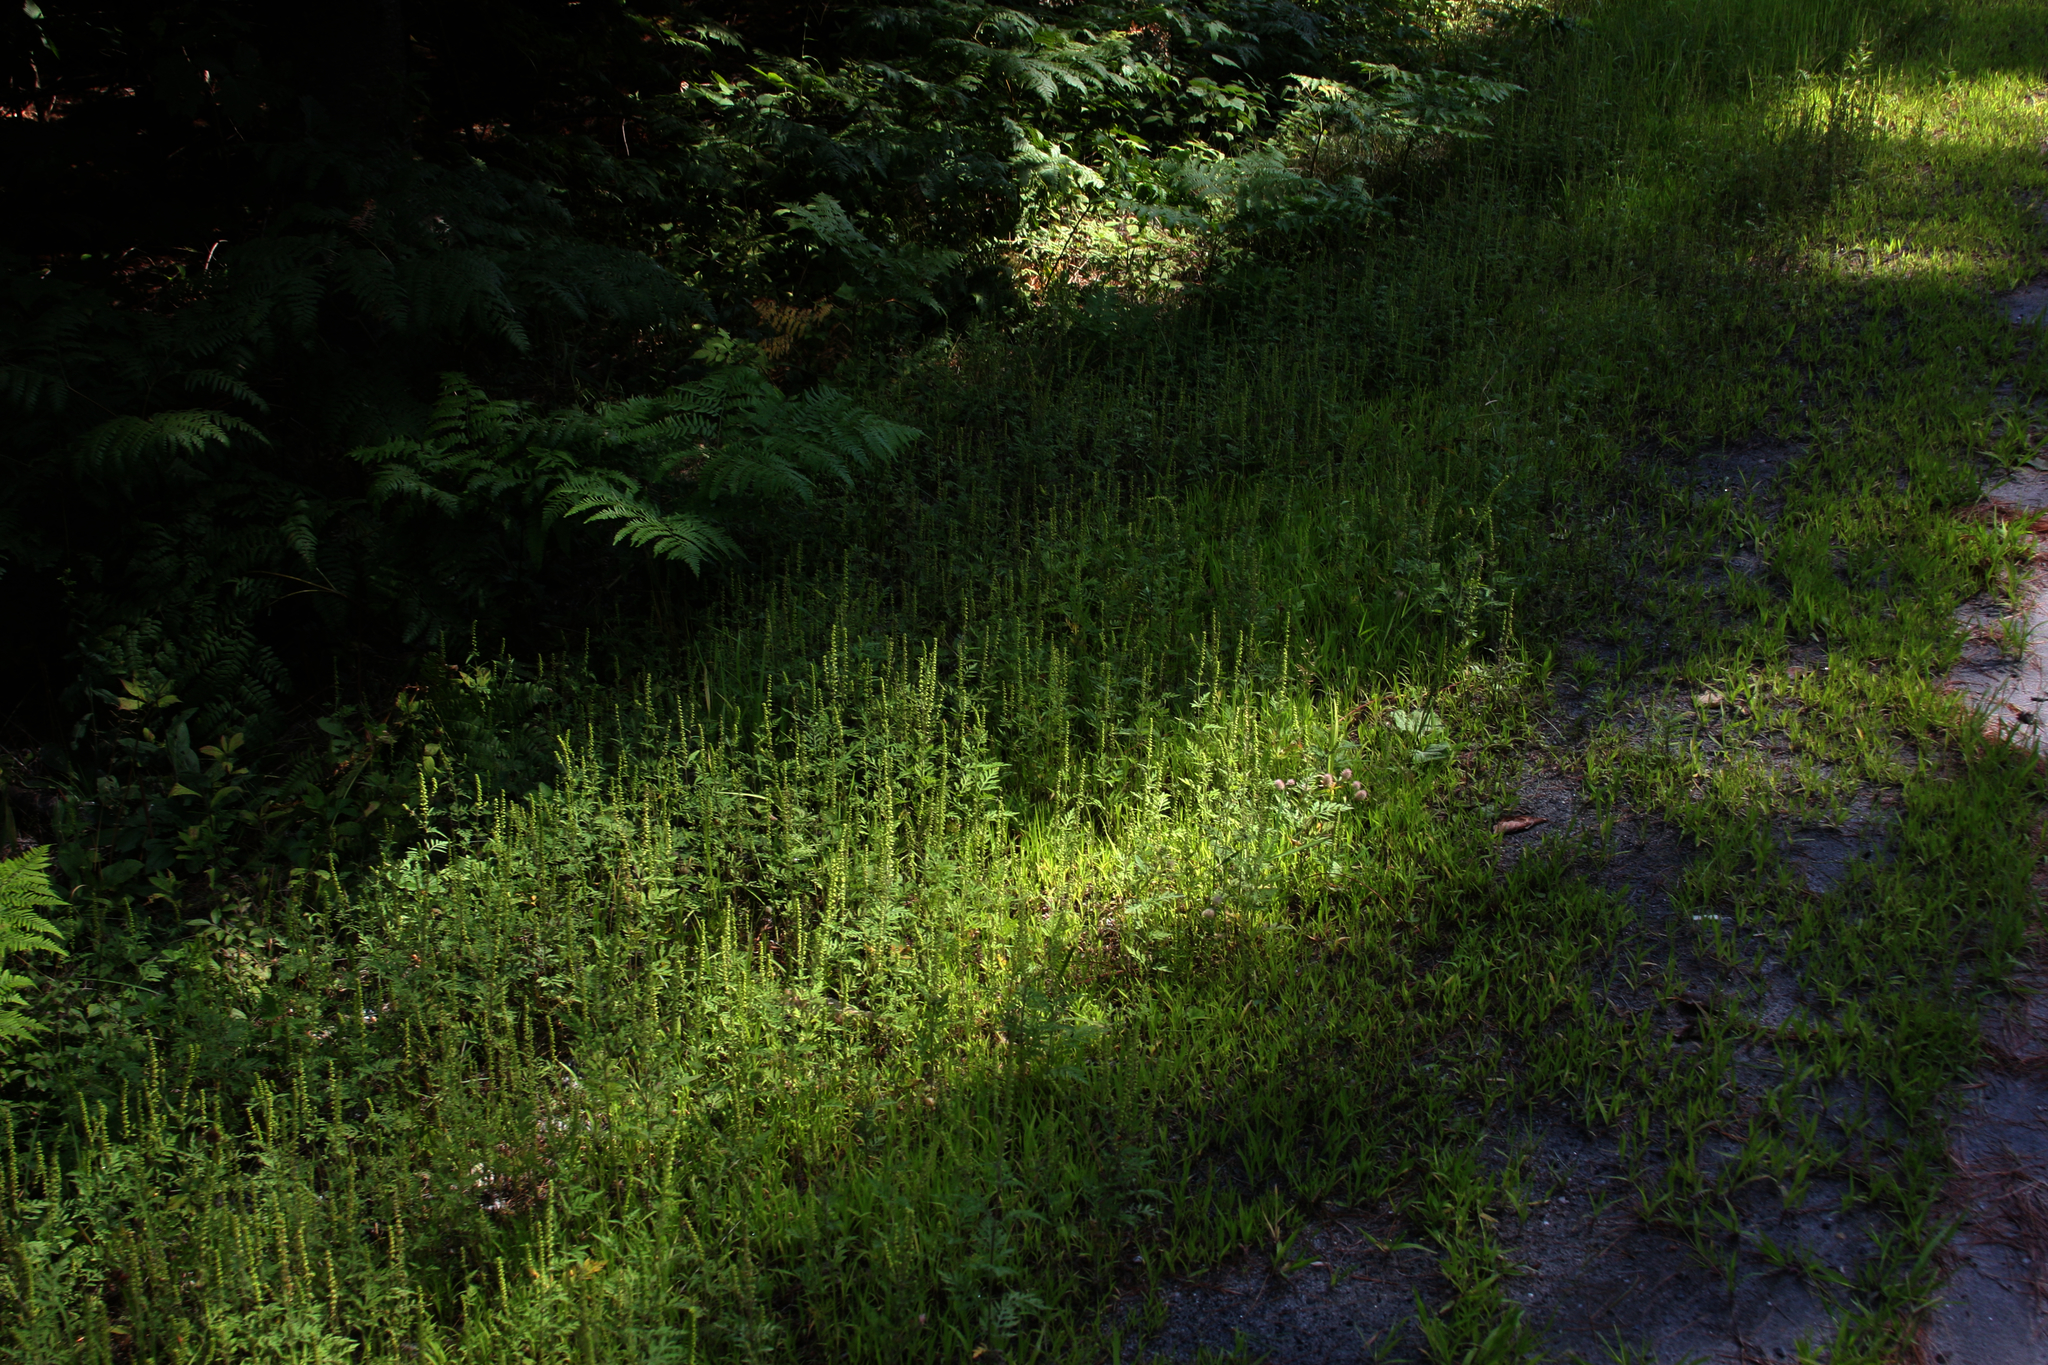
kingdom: Plantae
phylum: Tracheophyta
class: Magnoliopsida
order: Asterales
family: Asteraceae
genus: Ambrosia
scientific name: Ambrosia artemisiifolia
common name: Annual ragweed
